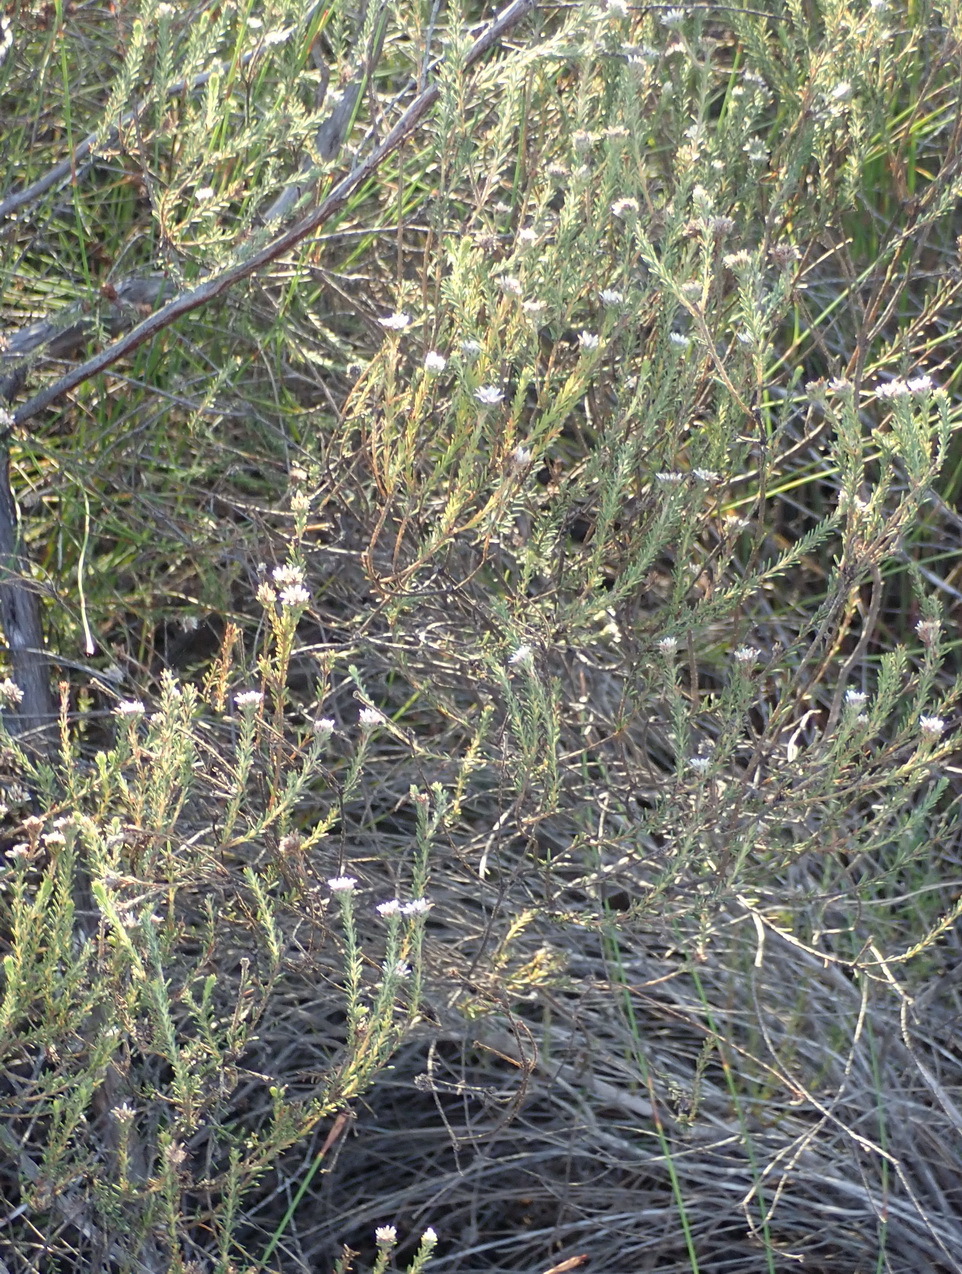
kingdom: Plantae
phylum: Tracheophyta
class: Magnoliopsida
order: Bruniales
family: Bruniaceae
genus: Staavia
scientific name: Staavia radiata
